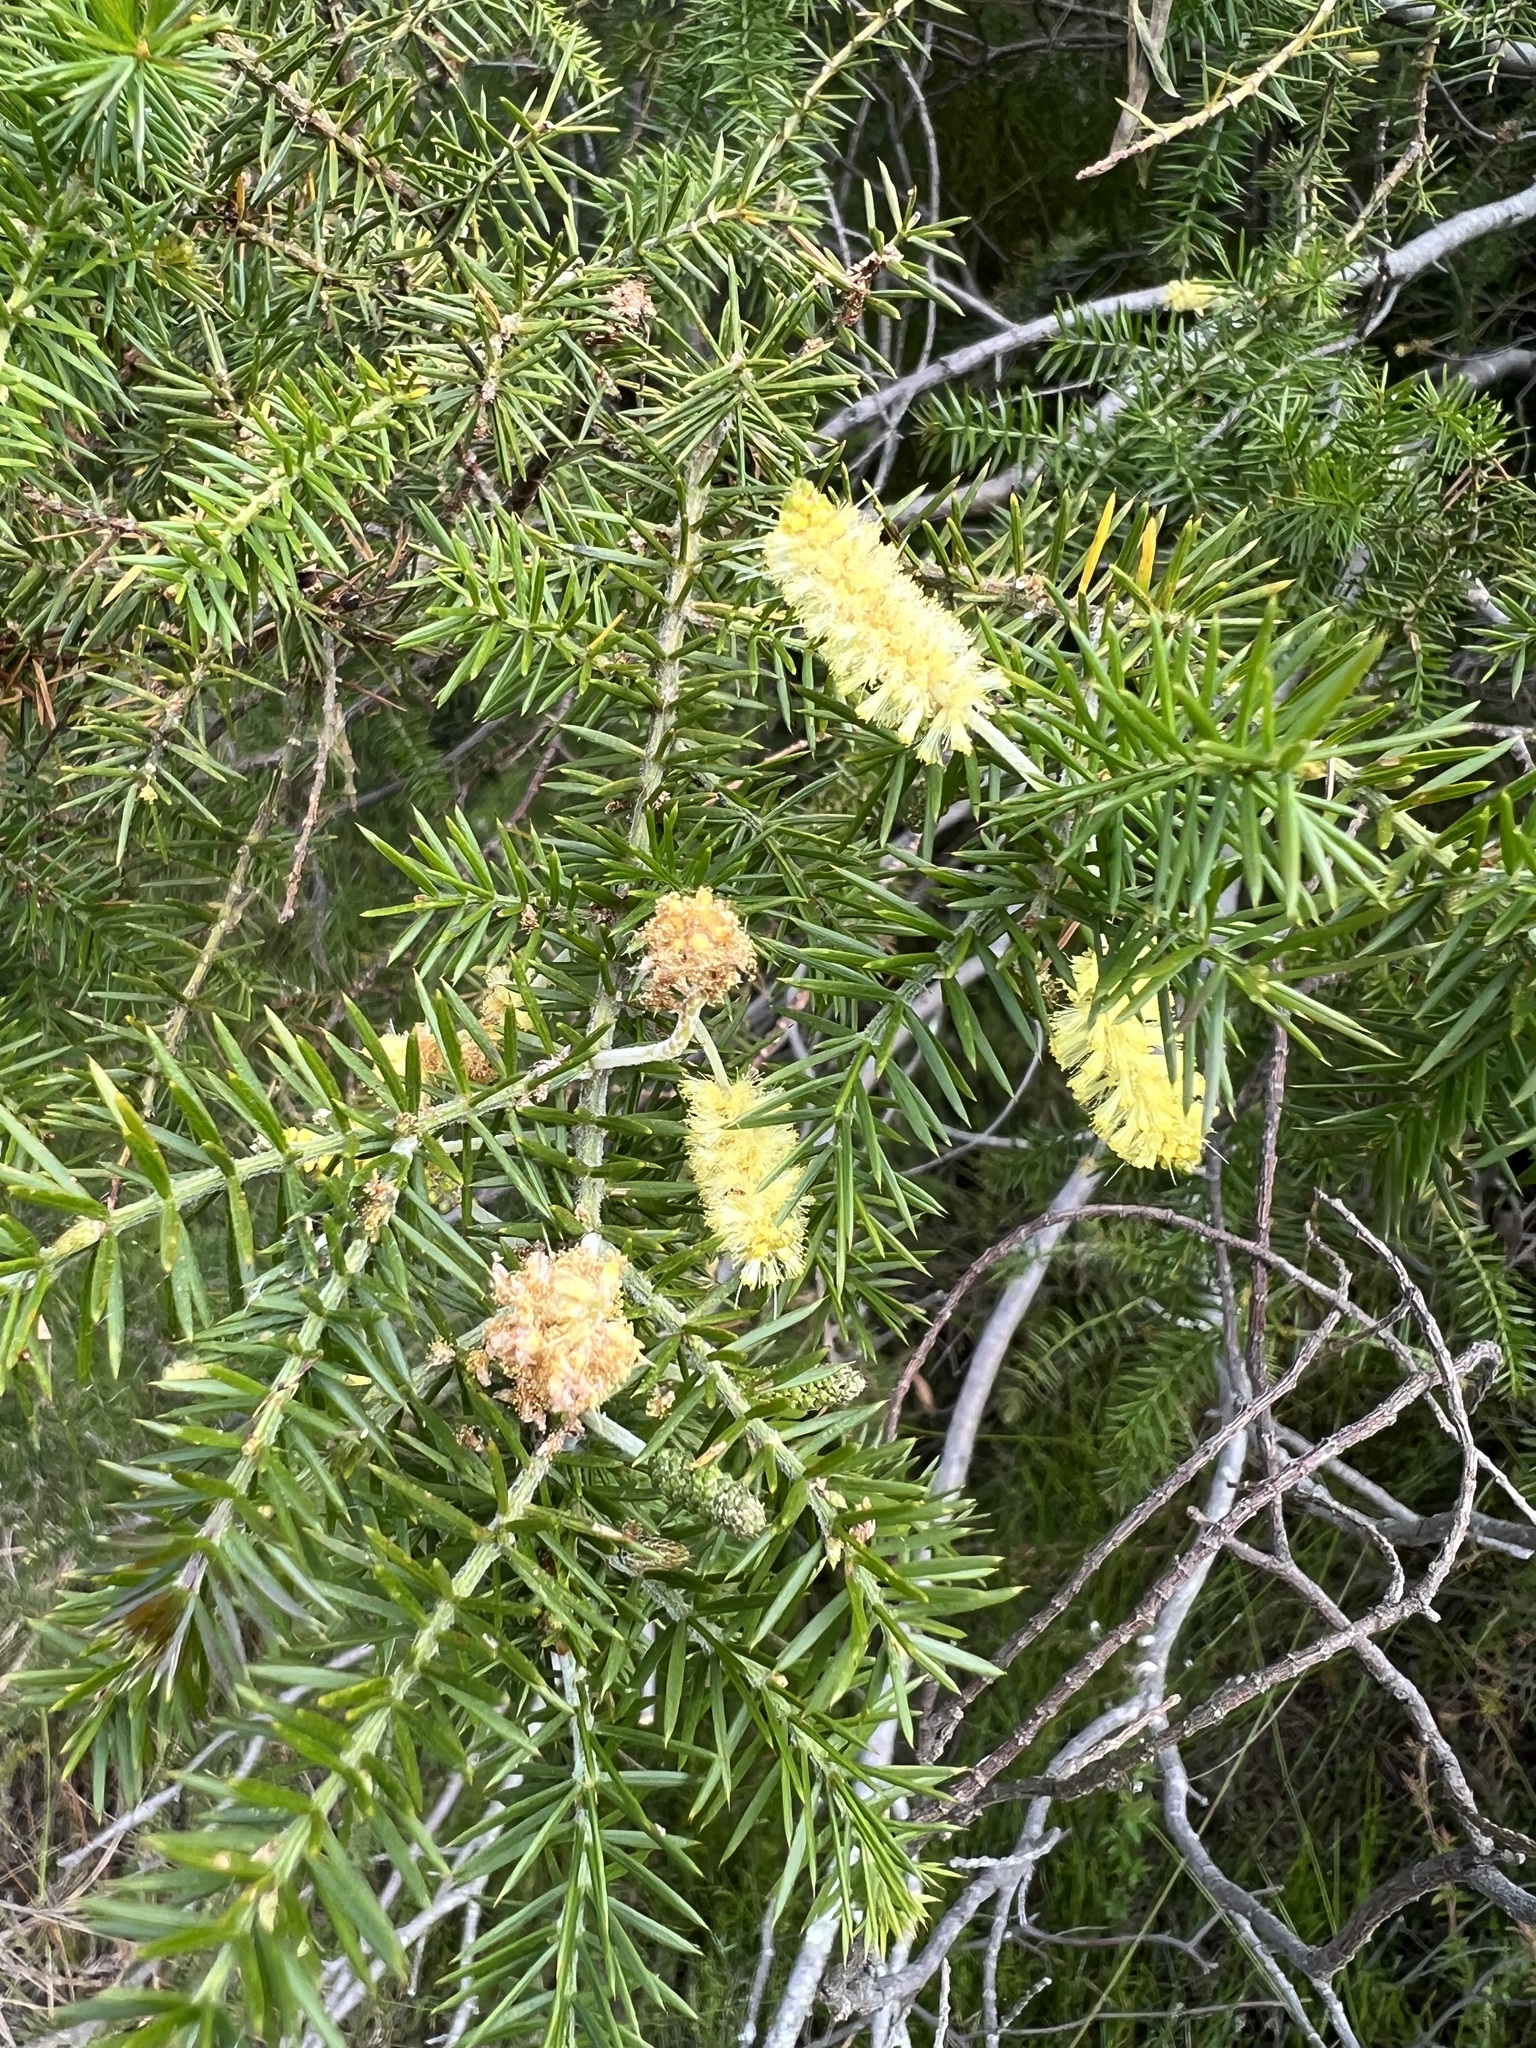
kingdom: Plantae
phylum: Tracheophyta
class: Magnoliopsida
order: Fabales
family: Fabaceae
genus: Acacia
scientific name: Acacia verticillata
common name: Prickly moses
